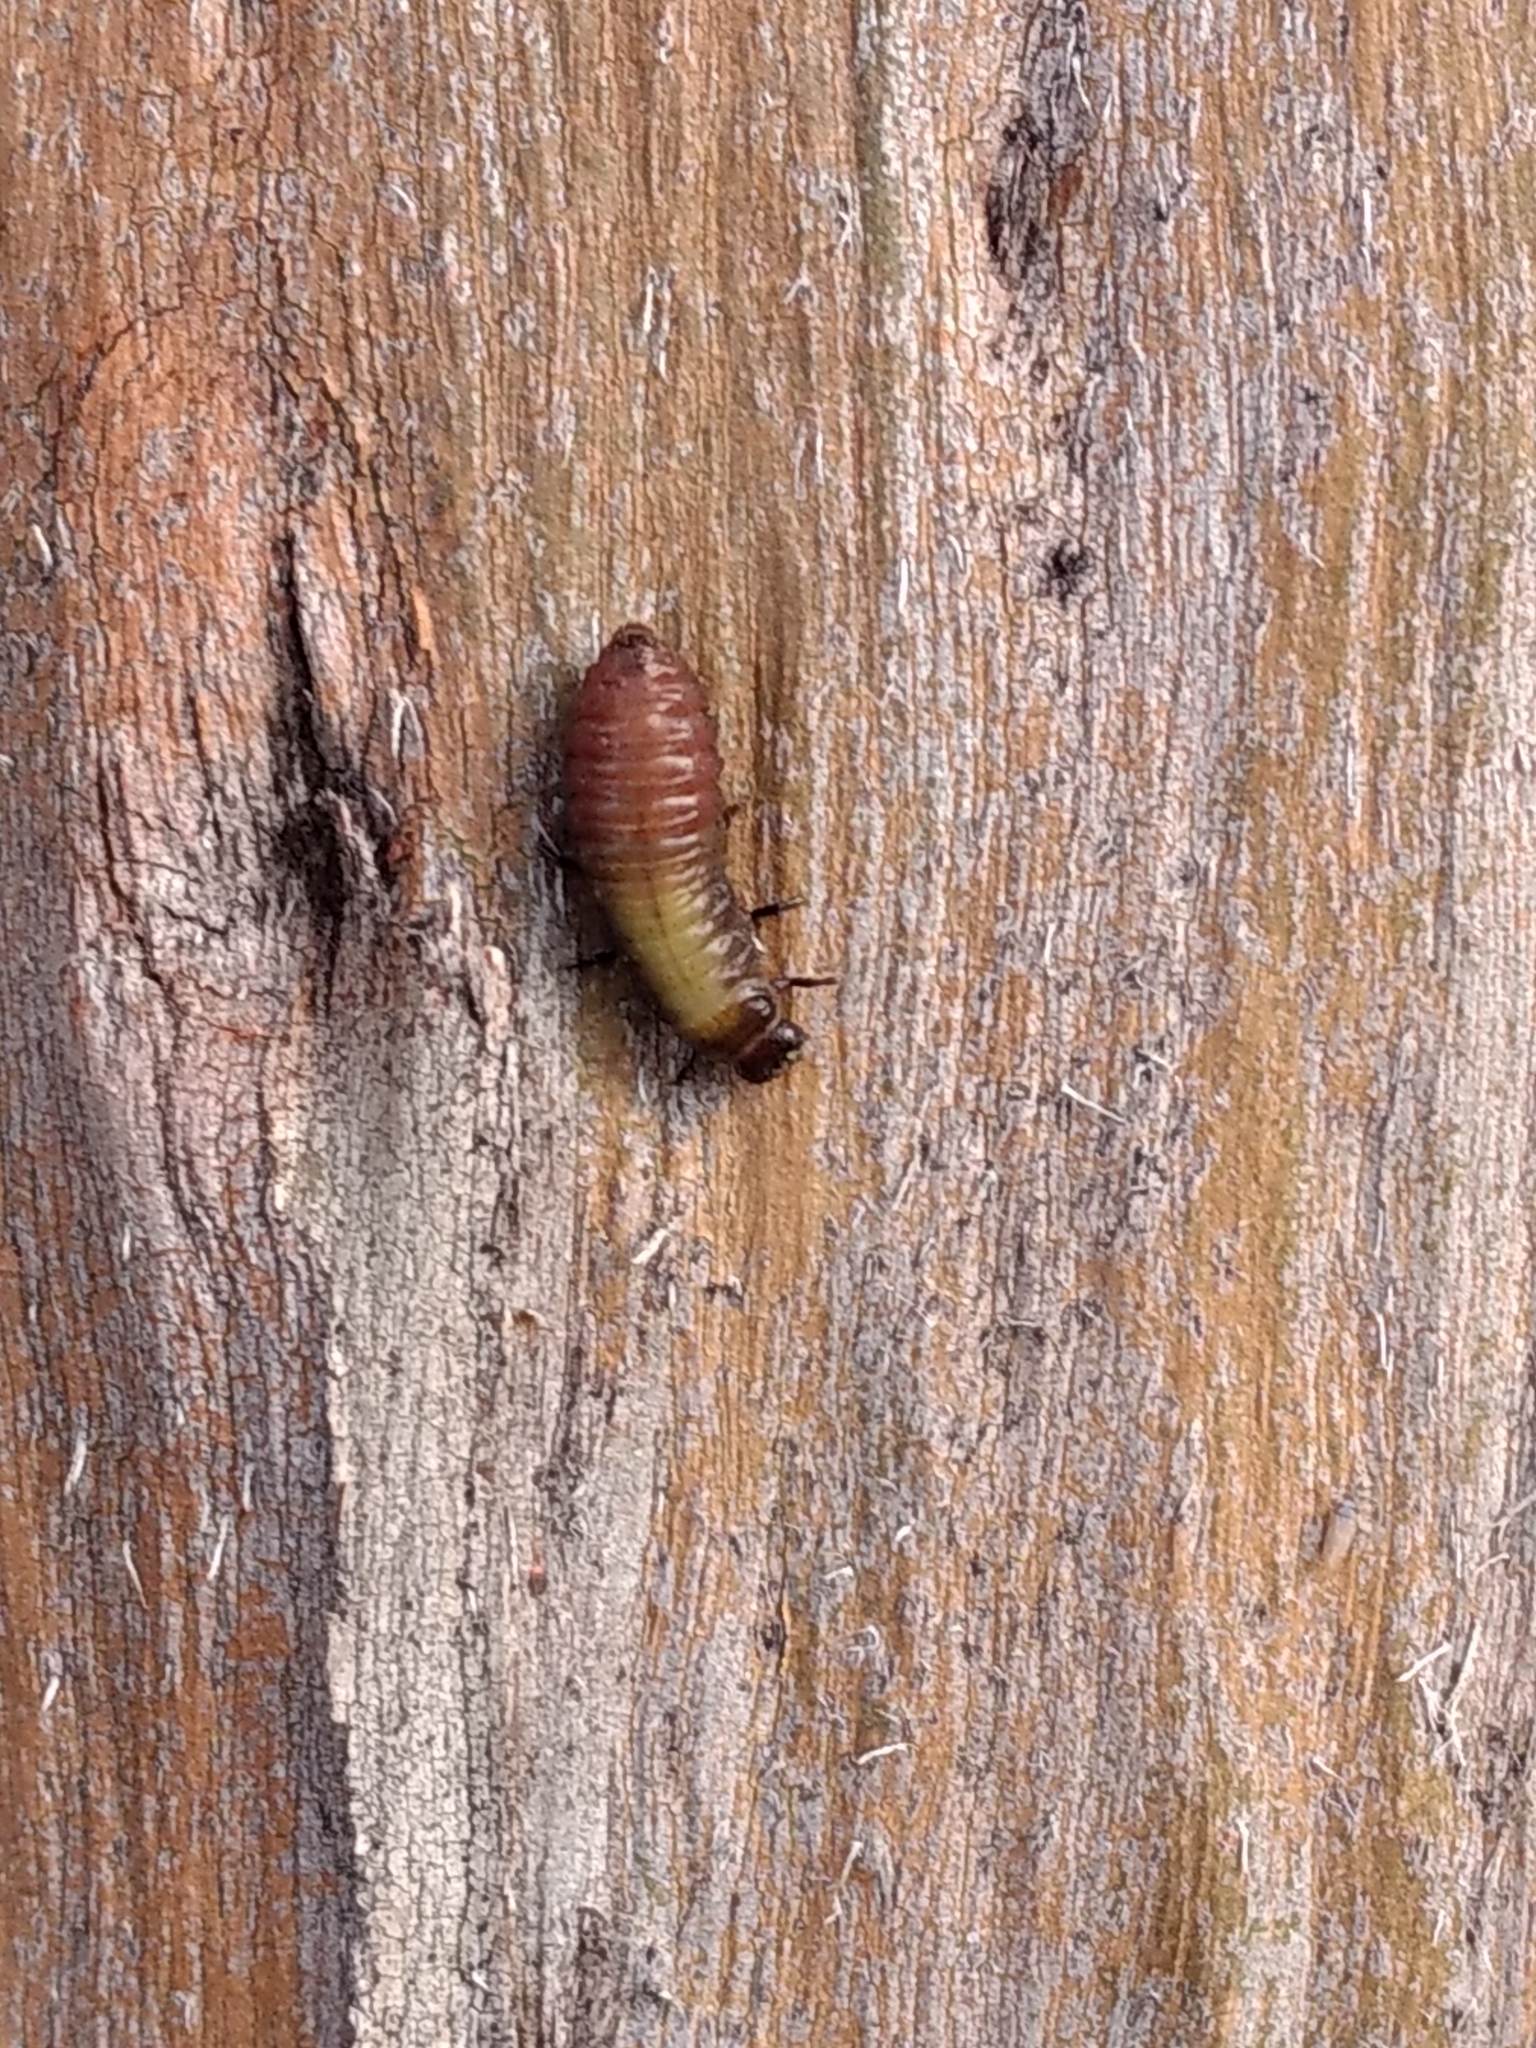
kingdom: Animalia
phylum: Arthropoda
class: Insecta
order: Coleoptera
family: Chrysomelidae
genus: Trachymela
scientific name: Trachymela sloanei
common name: Australian tortoise beetle
